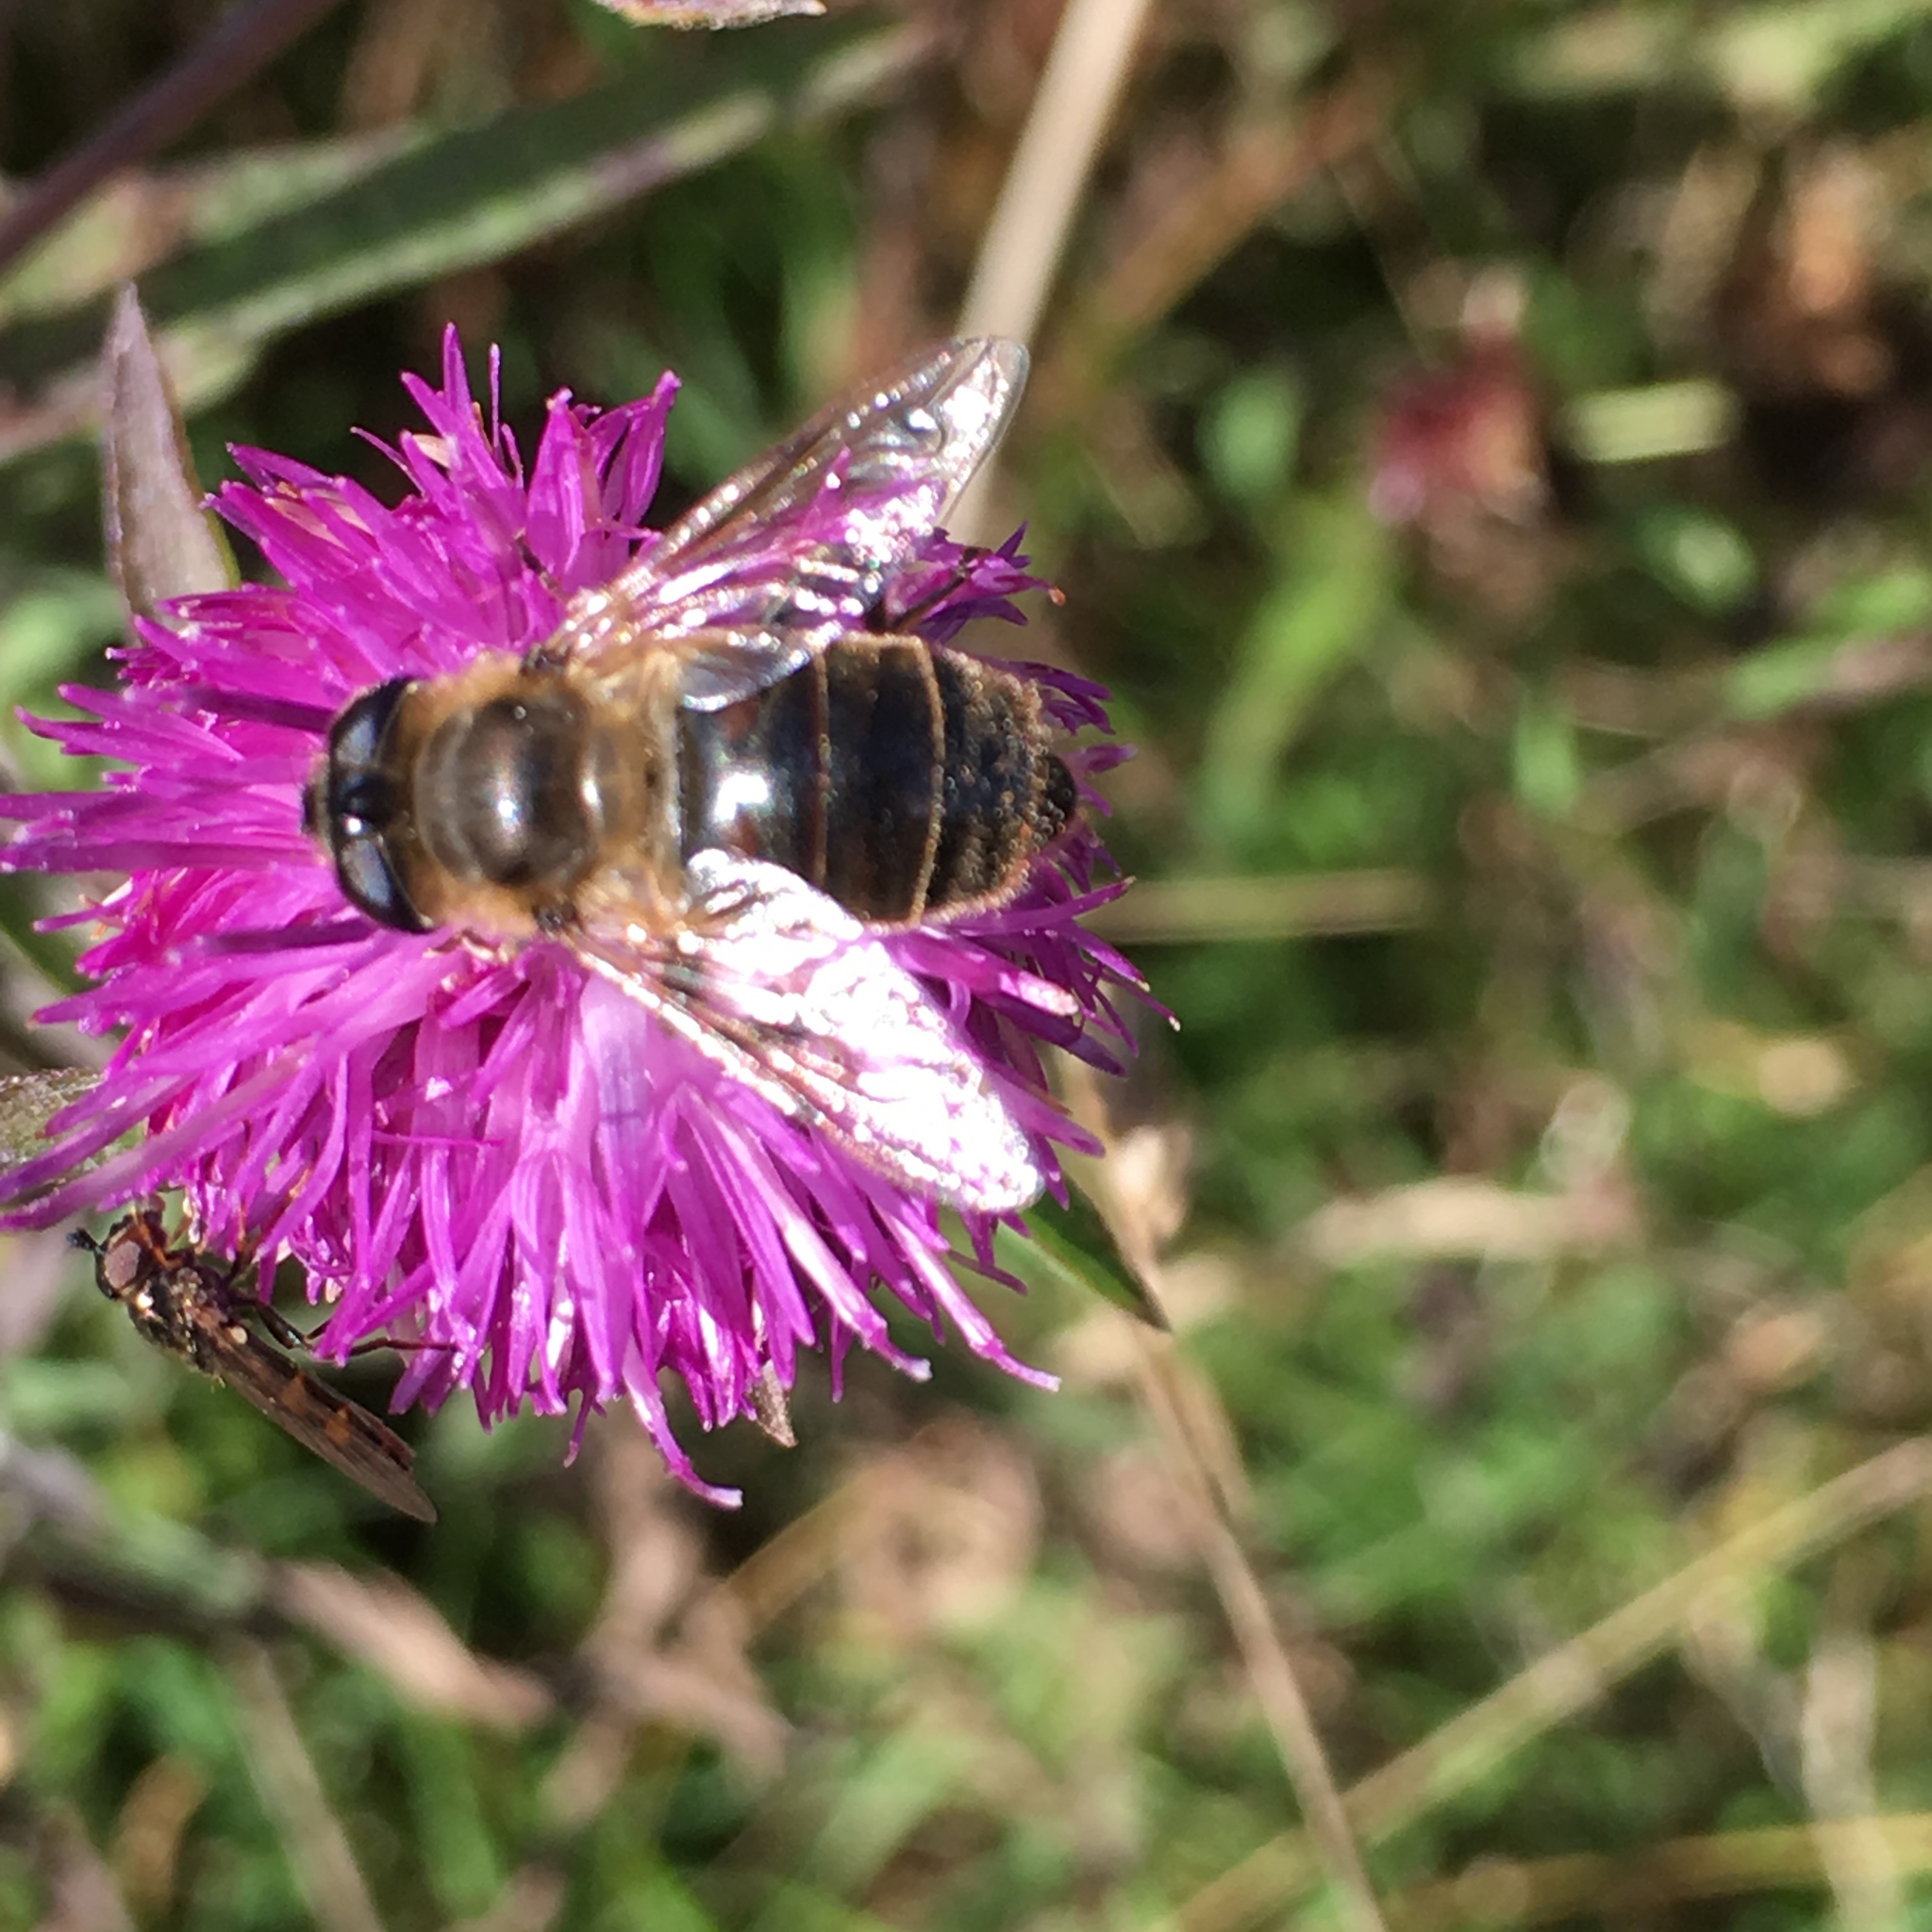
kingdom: Animalia
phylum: Arthropoda
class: Insecta
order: Diptera
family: Syrphidae
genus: Eristalis
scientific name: Eristalis tenax
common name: Drone fly
